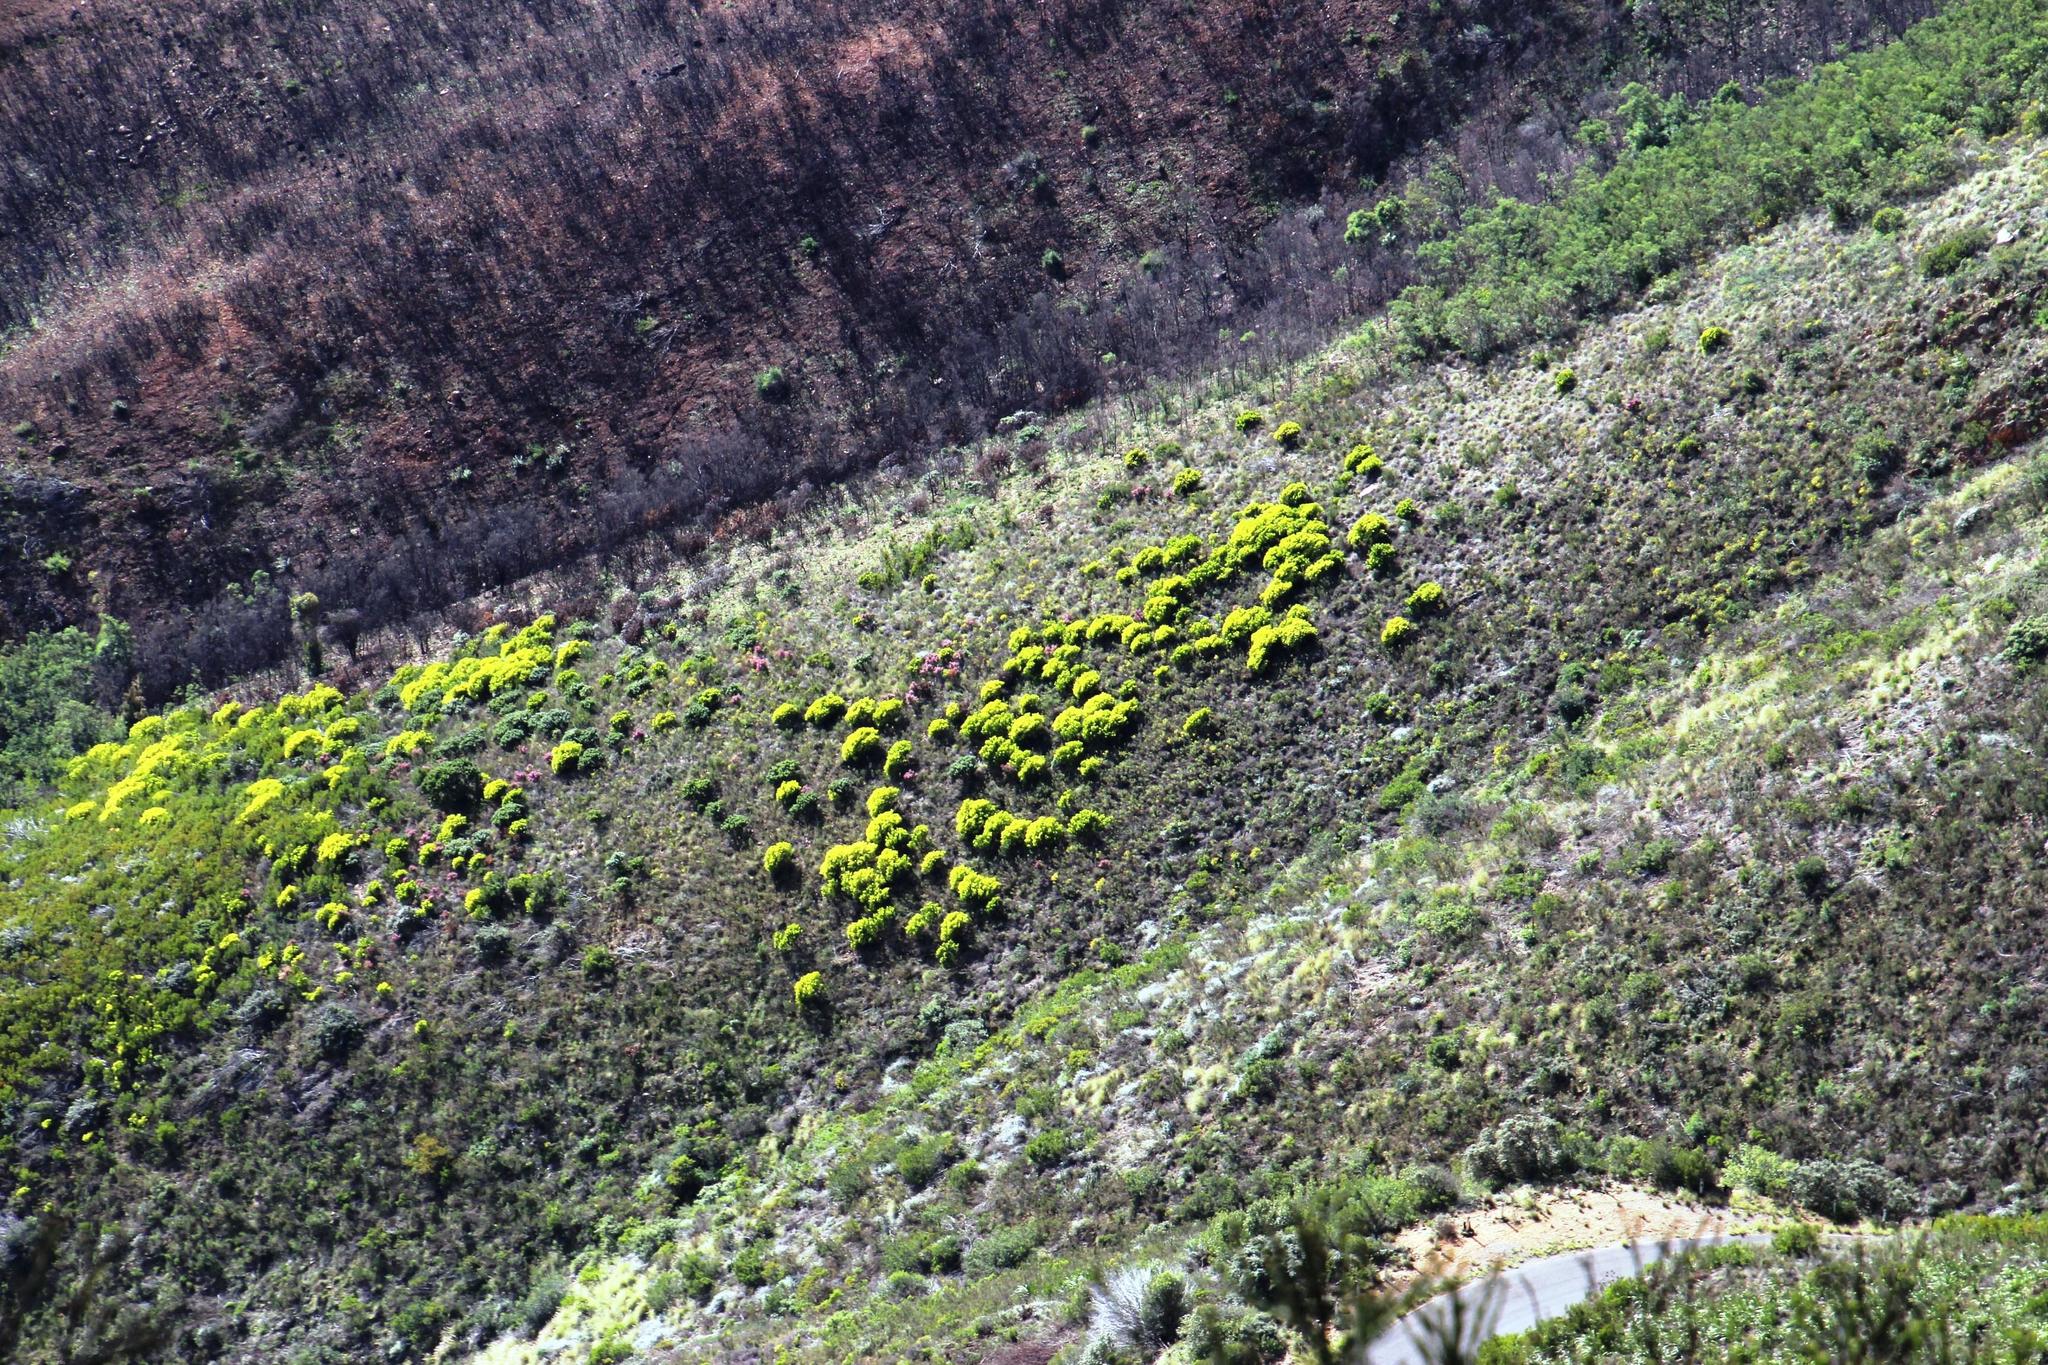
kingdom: Plantae
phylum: Tracheophyta
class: Magnoliopsida
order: Proteales
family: Proteaceae
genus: Leucadendron
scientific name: Leucadendron laureolum
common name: Golden sunshinebush
